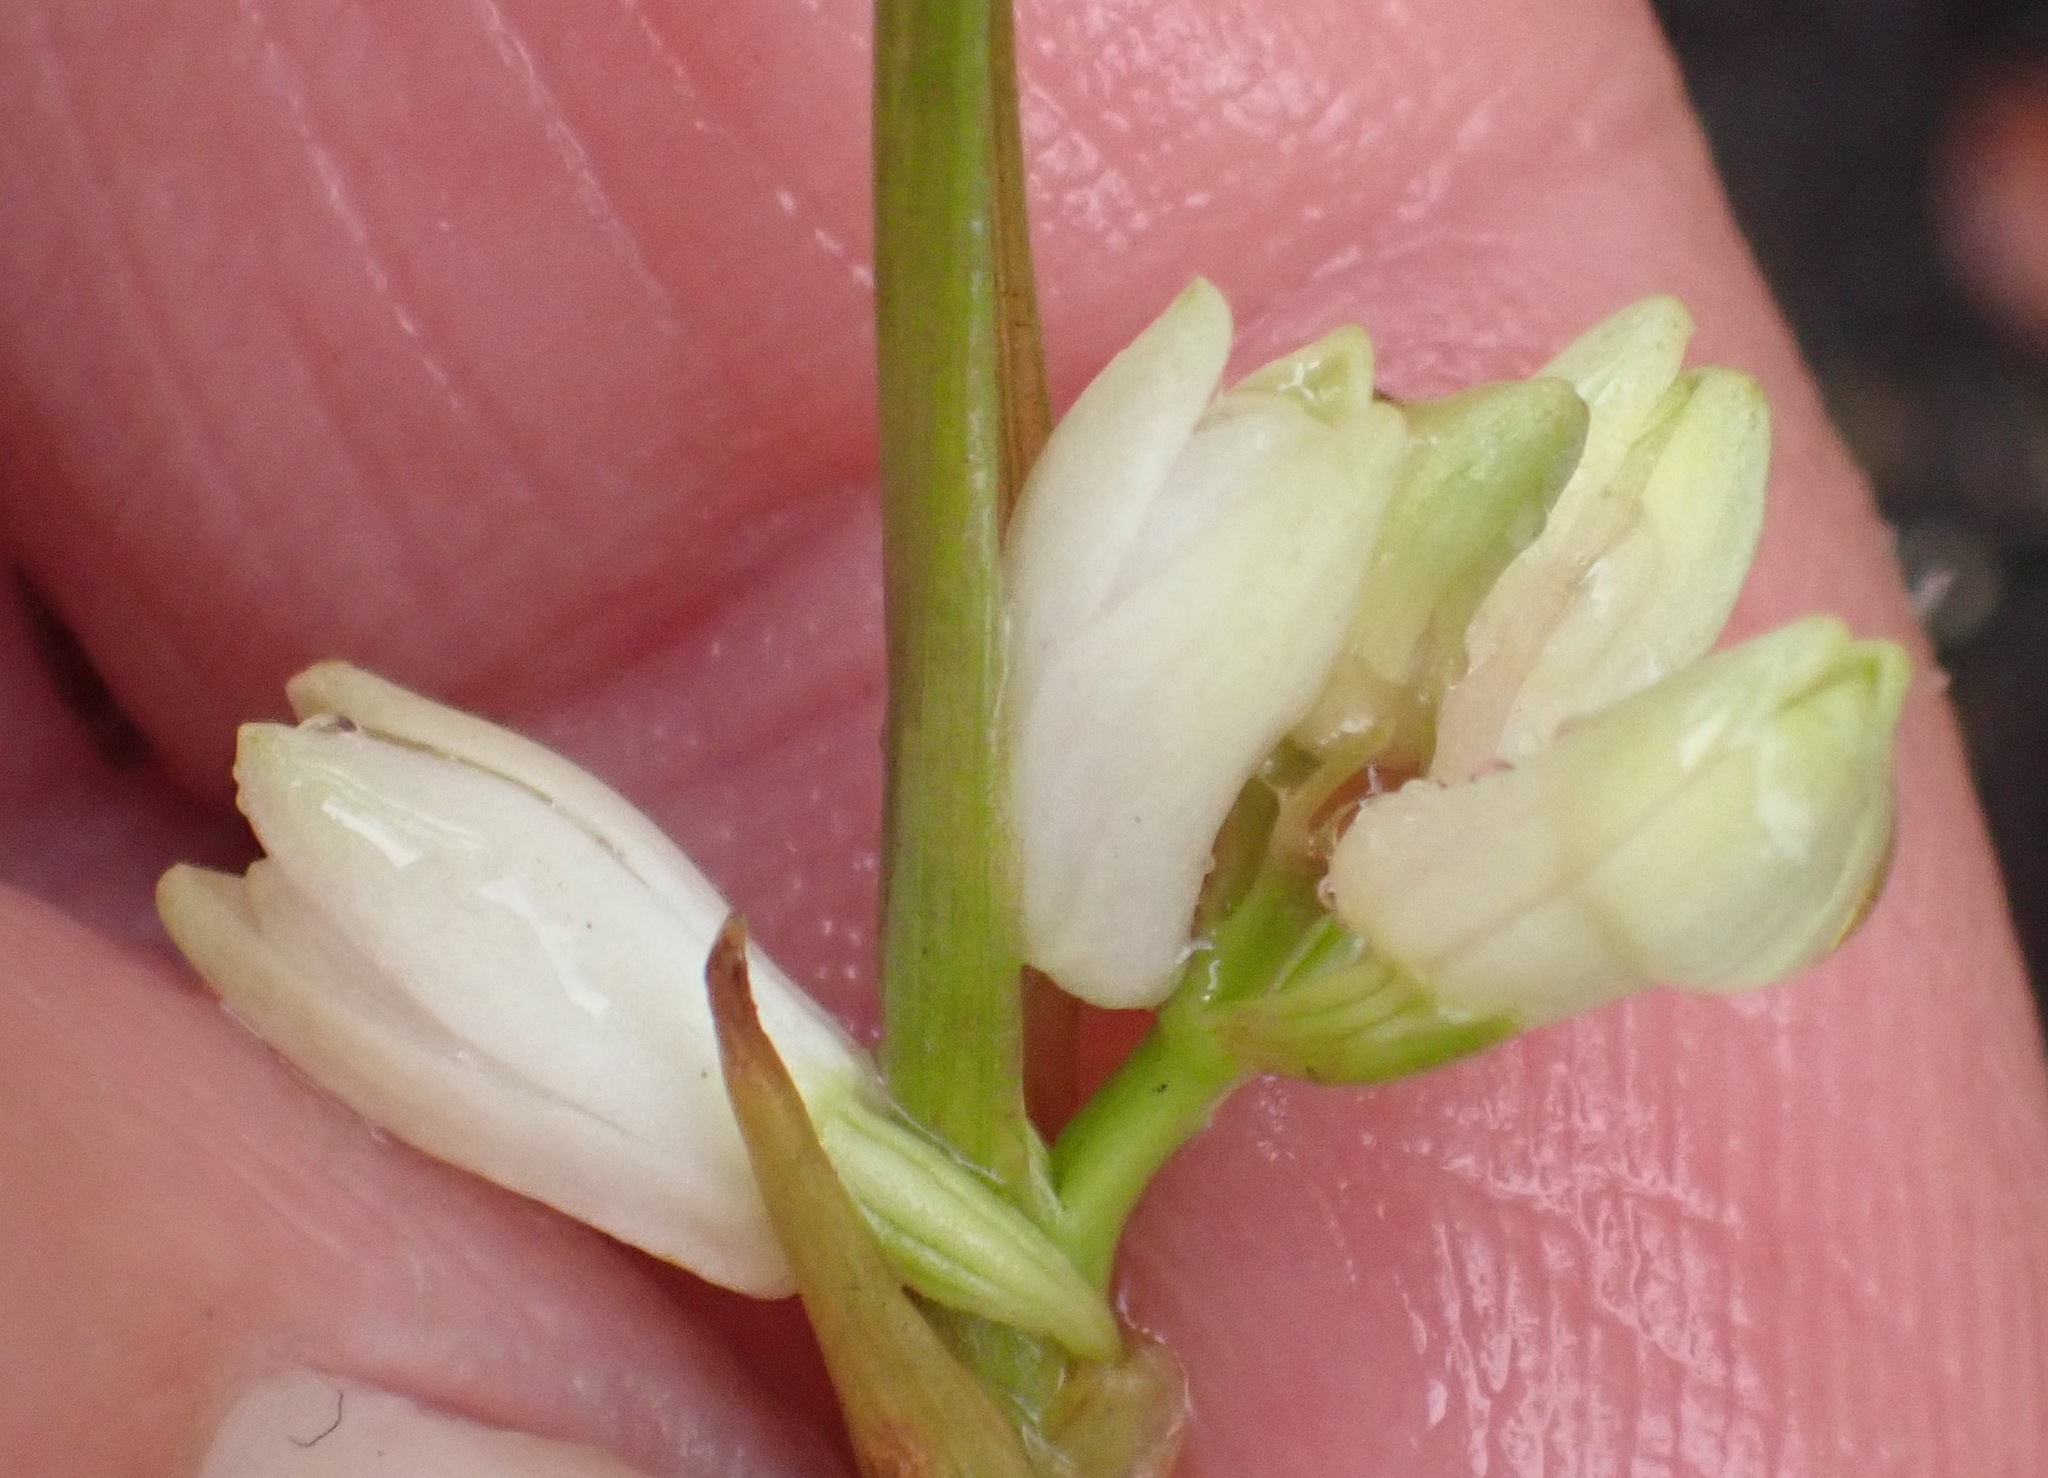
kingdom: Plantae
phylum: Tracheophyta
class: Liliopsida
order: Asparagales
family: Orchidaceae
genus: Eulophia
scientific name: Eulophia aculeata
